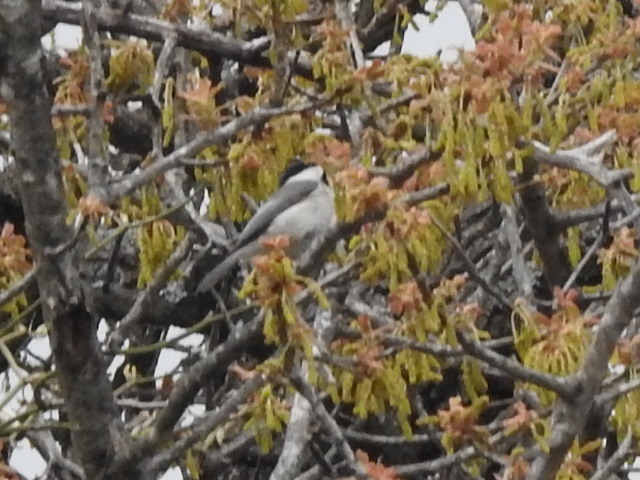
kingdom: Animalia
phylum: Chordata
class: Aves
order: Passeriformes
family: Paridae
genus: Poecile
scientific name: Poecile carolinensis
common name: Carolina chickadee
